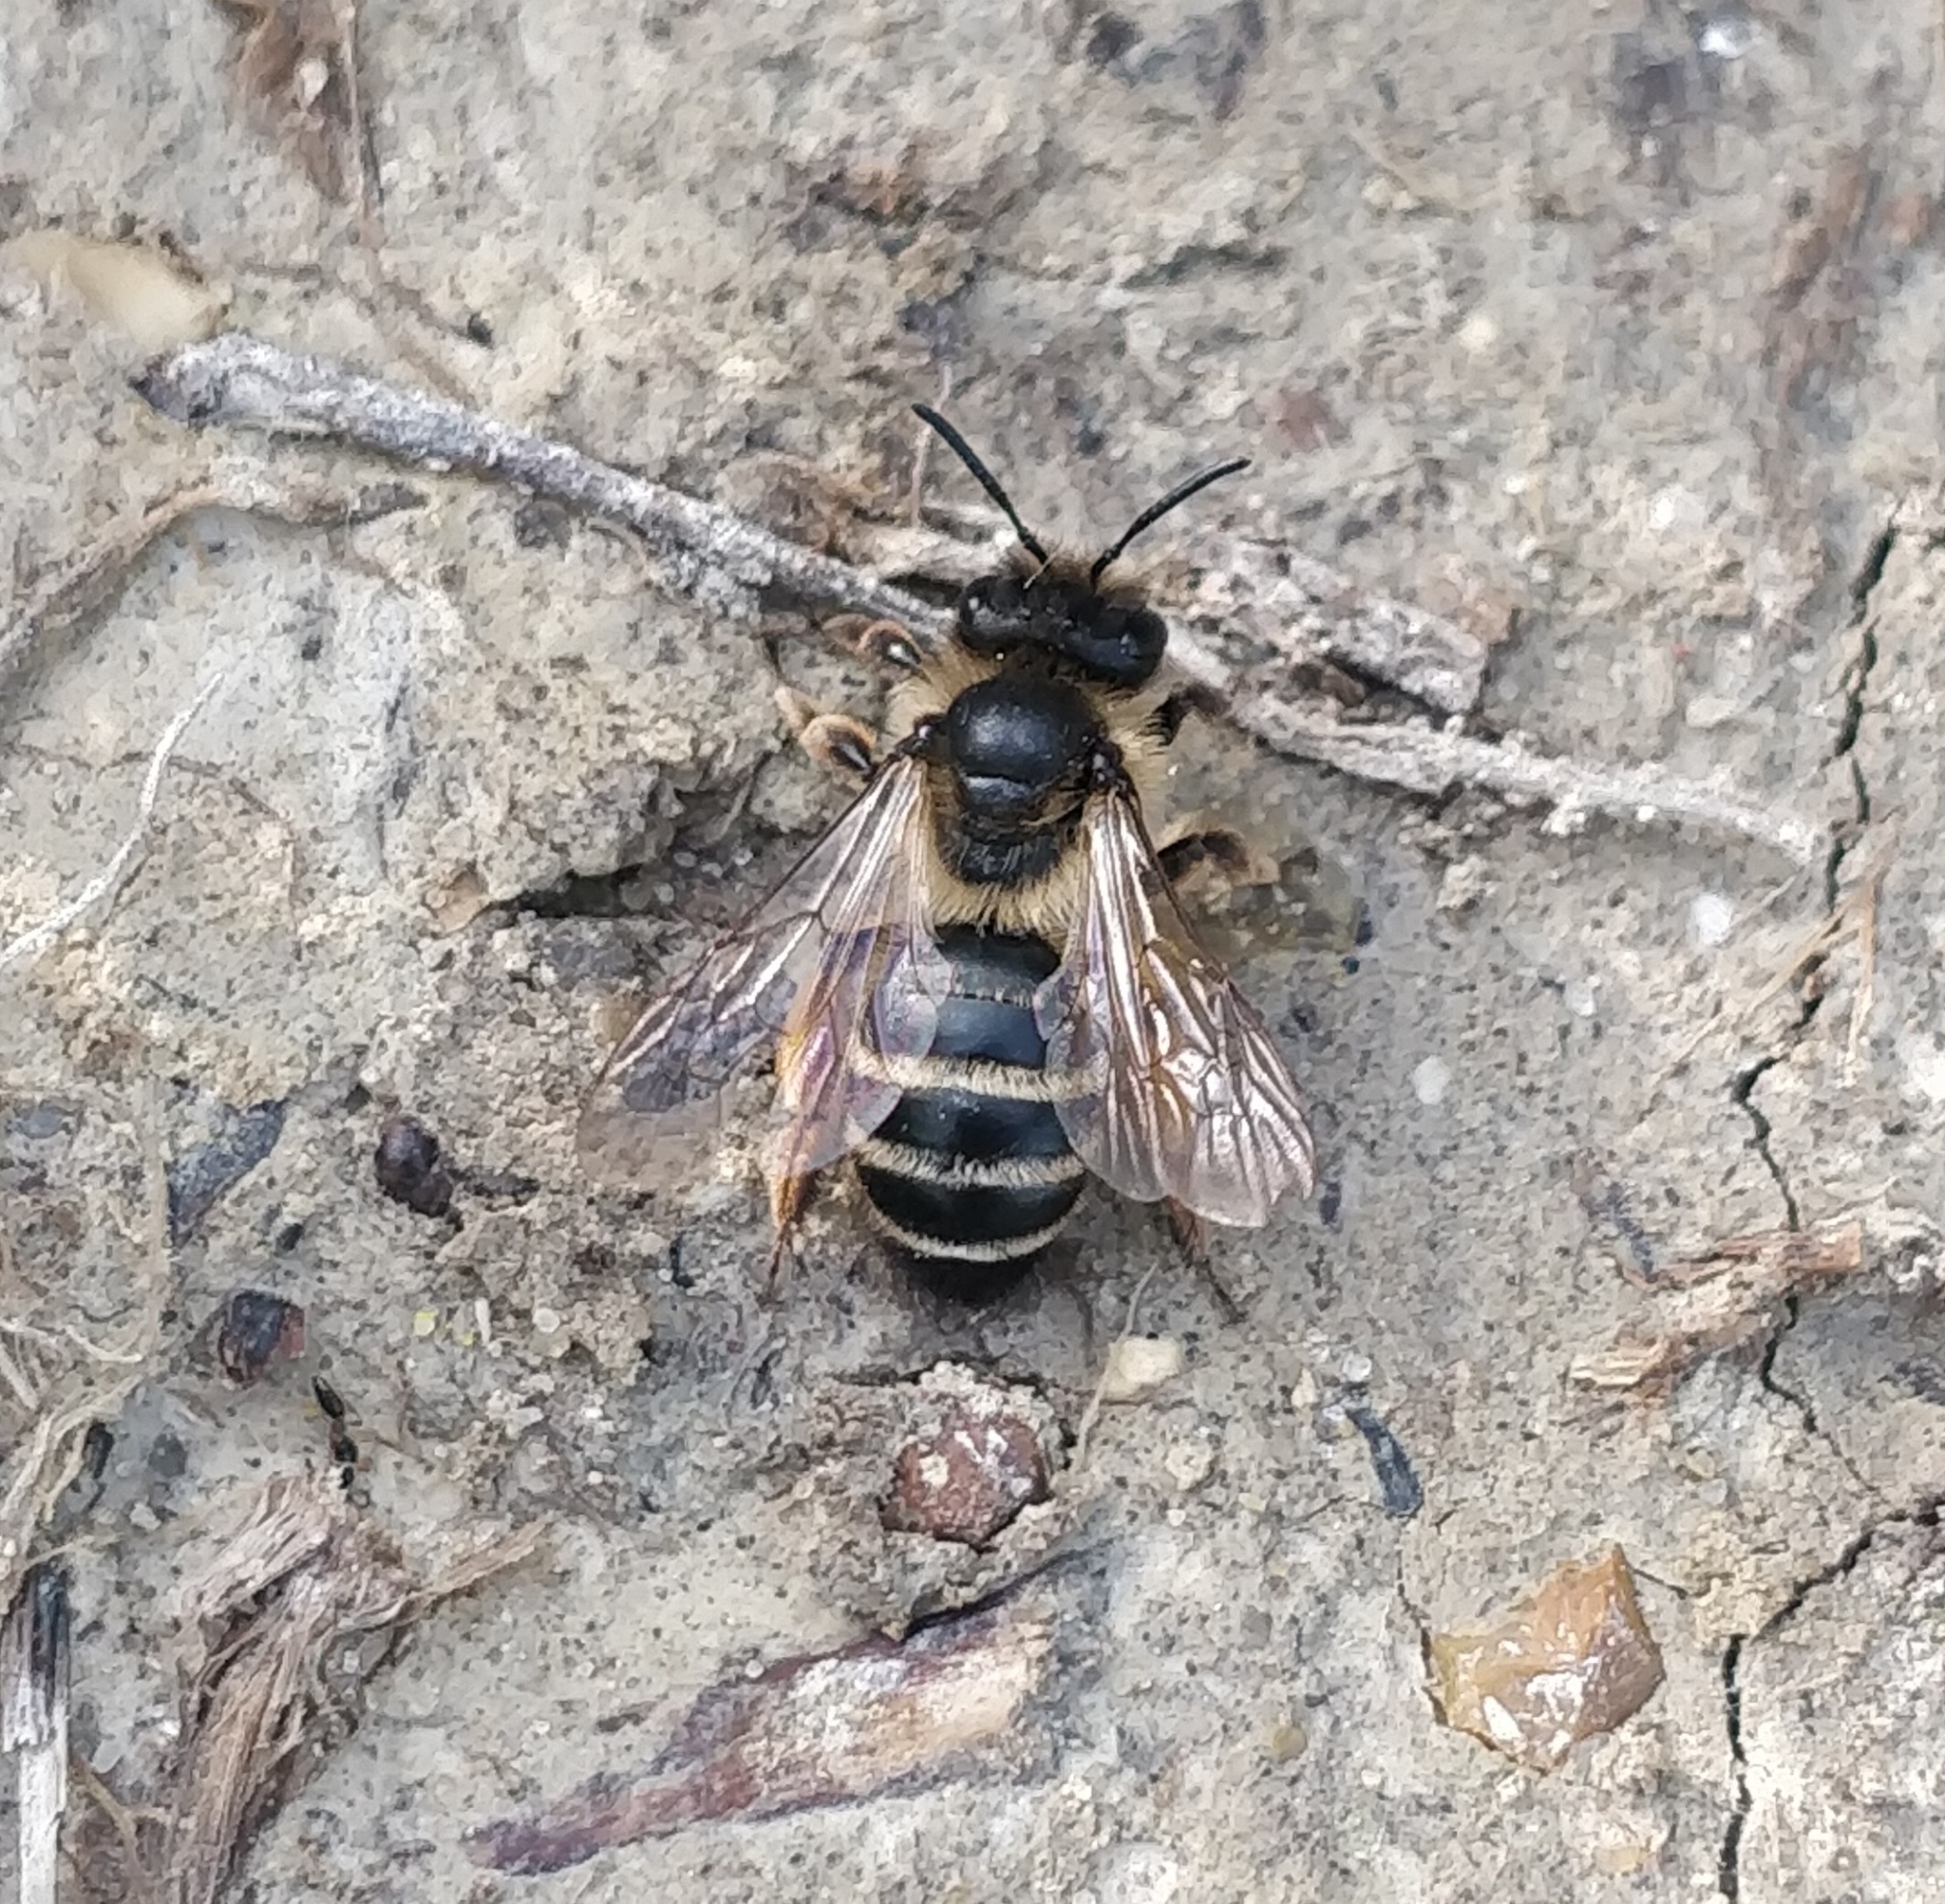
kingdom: Animalia
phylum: Arthropoda
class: Insecta
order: Hymenoptera
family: Andrenidae
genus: Andrena
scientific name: Andrena flavipes
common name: Yellow-legged mining bee
